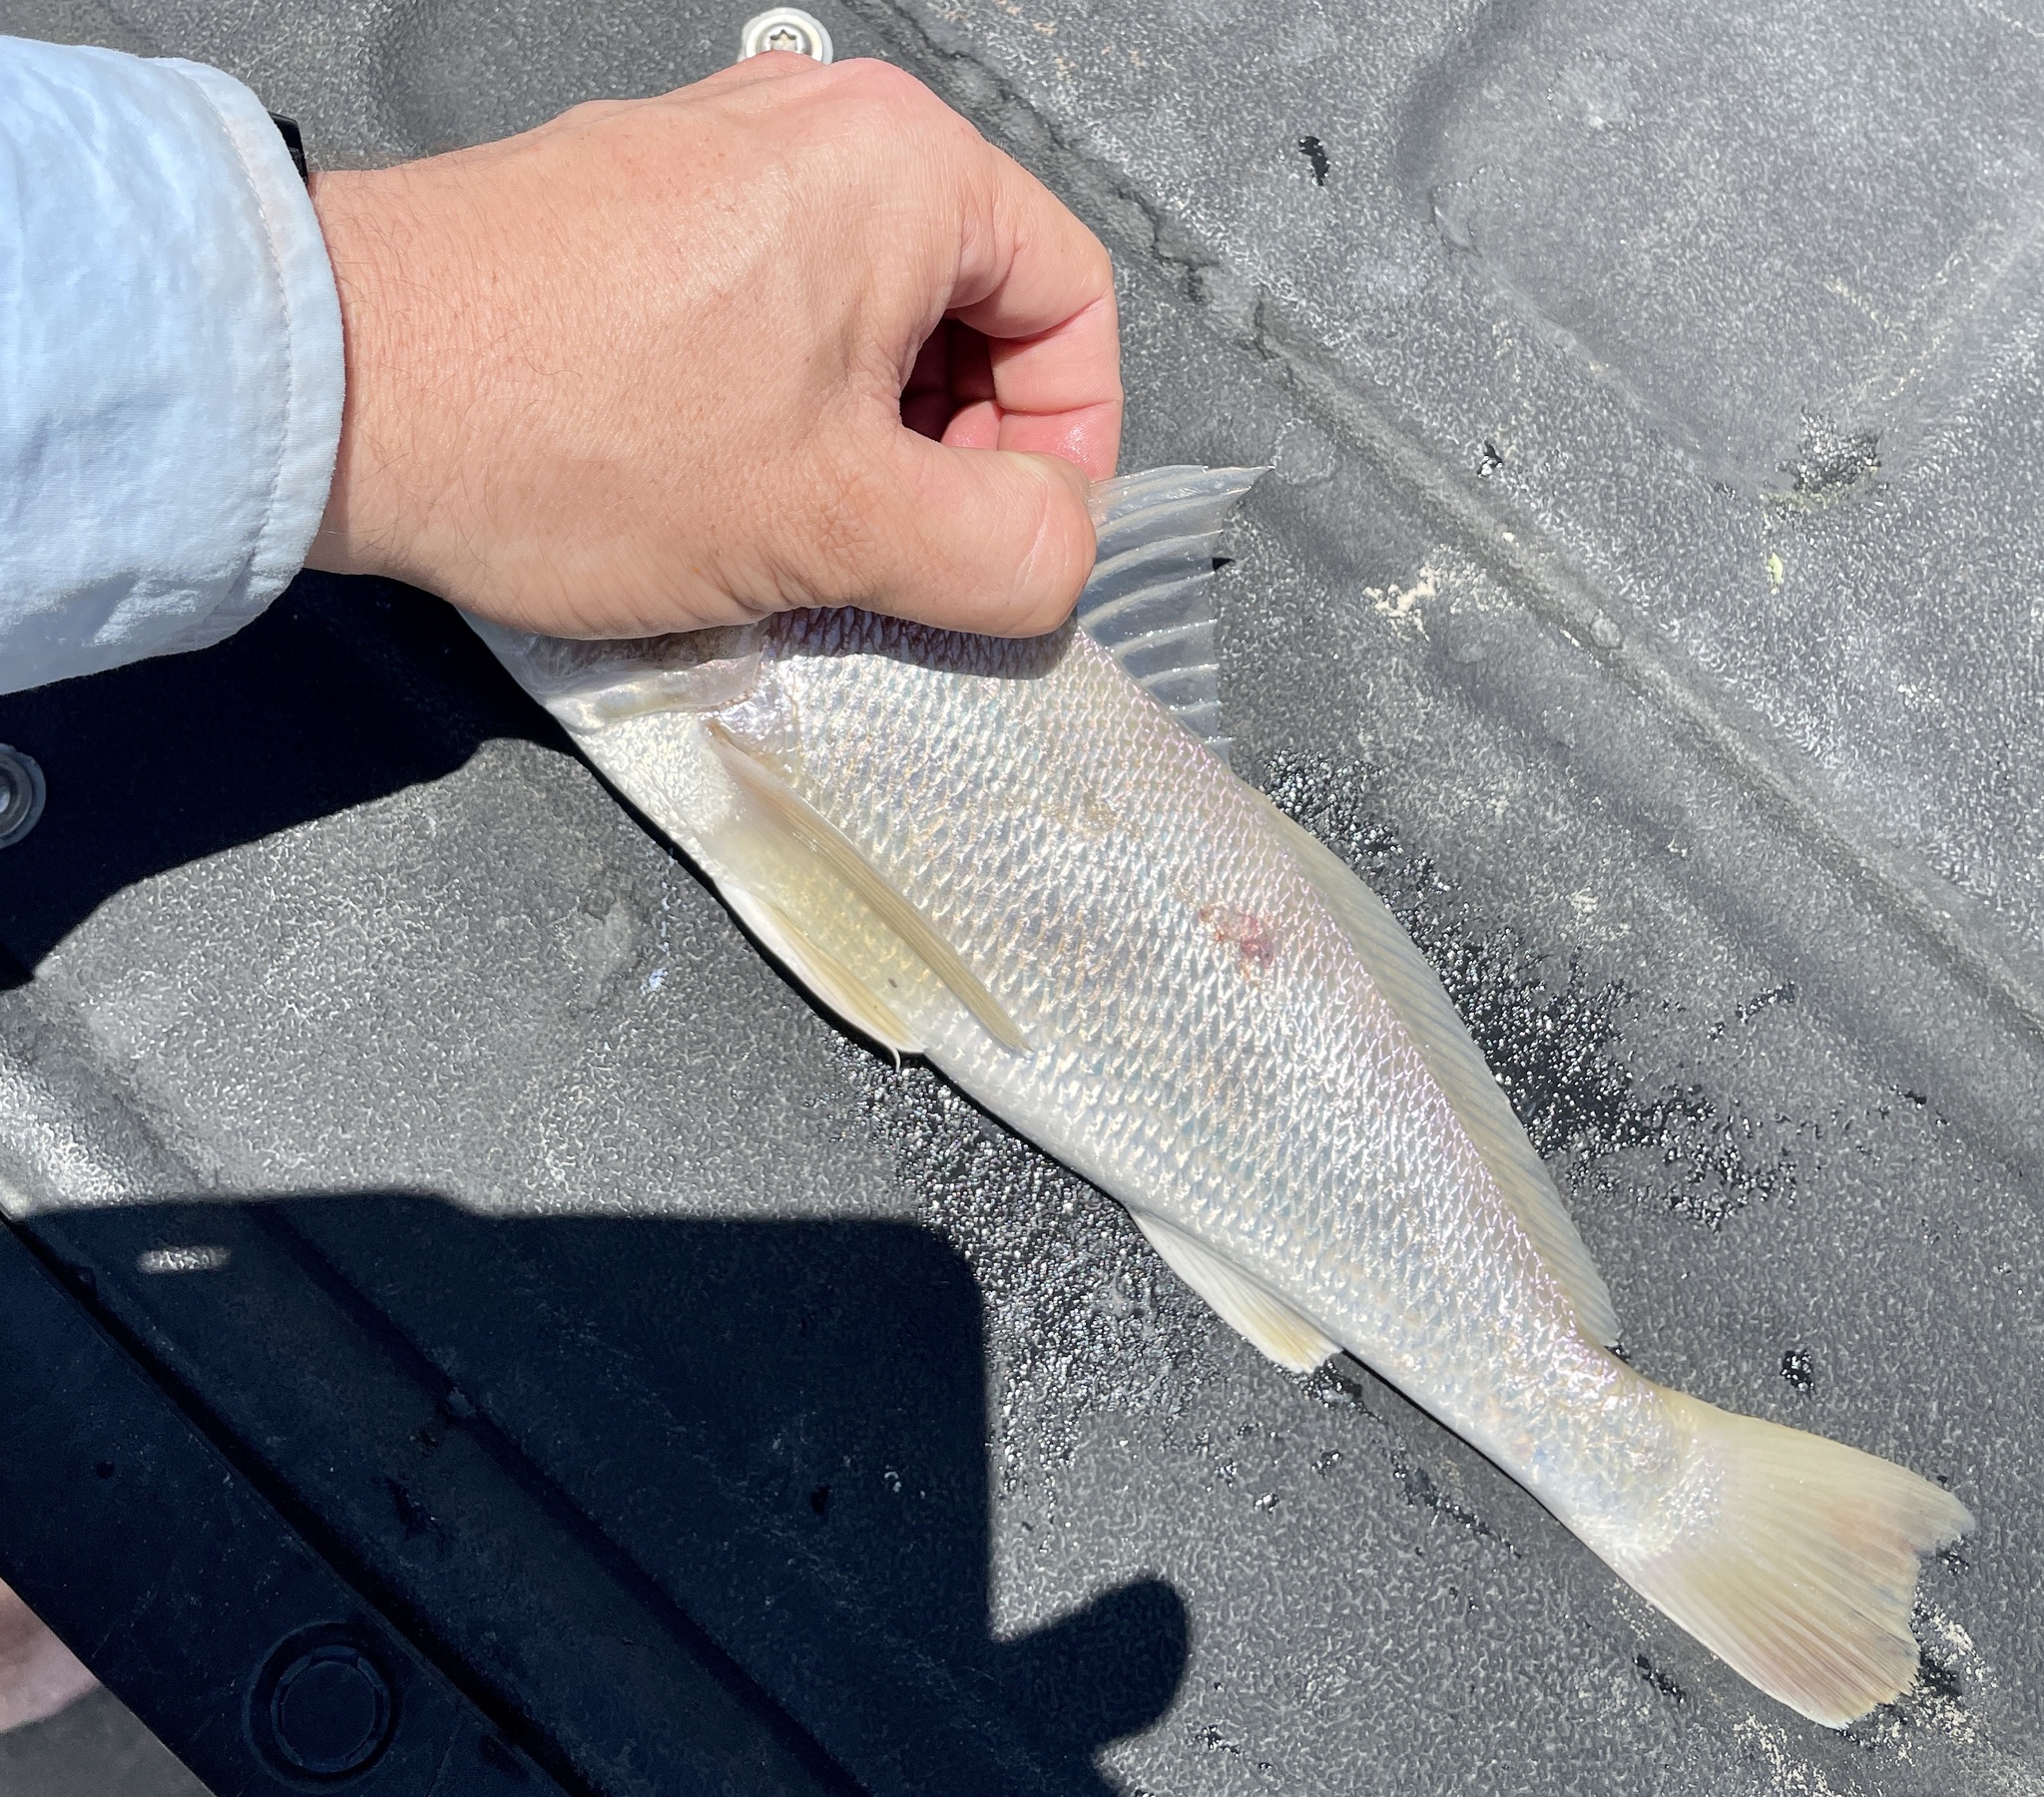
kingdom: Animalia
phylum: Chordata
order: Perciformes
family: Sciaenidae
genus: Menticirrhus
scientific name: Menticirrhus americanus
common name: Southern kingfish
